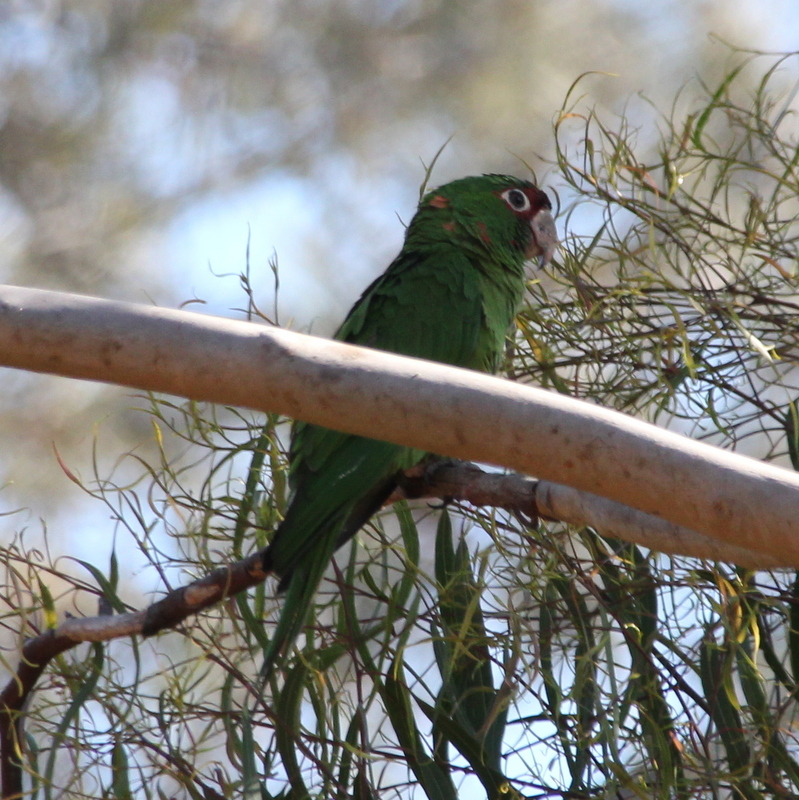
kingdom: Animalia
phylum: Chordata
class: Aves
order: Psittaciformes
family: Psittacidae
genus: Aratinga
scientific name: Aratinga mitrata
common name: Mitred parakeet
